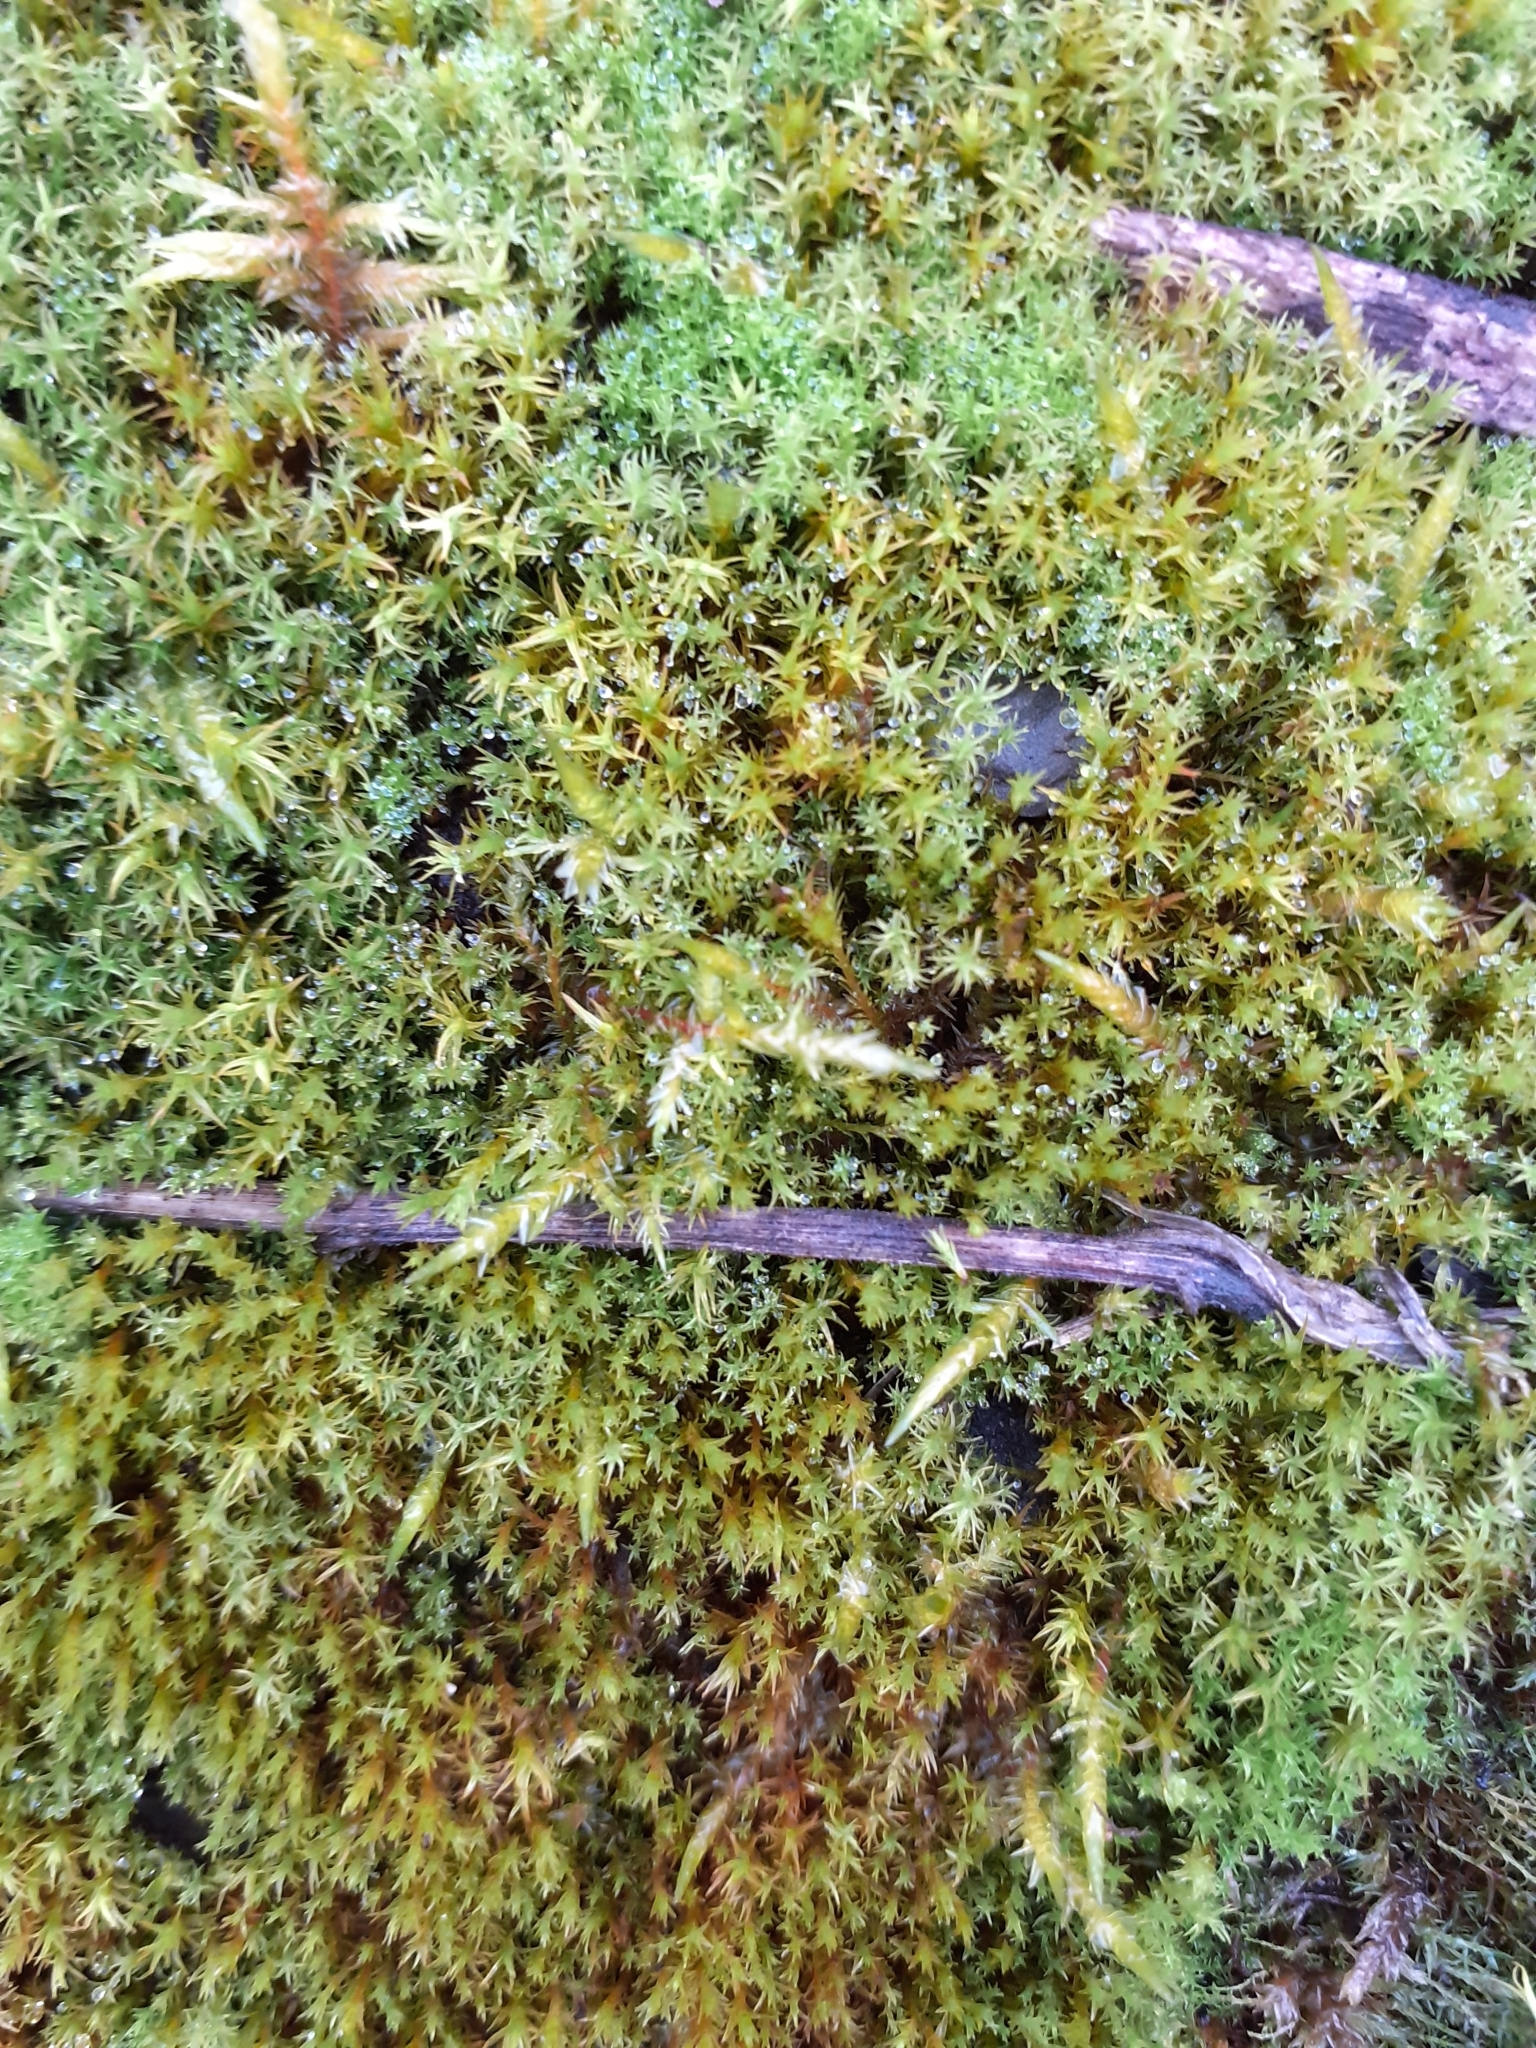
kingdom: Plantae
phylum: Bryophyta
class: Bryopsida
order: Hypnales
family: Pylaisiaceae
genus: Calliergonella
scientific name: Calliergonella cuspidata
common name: Common large wetland moss
